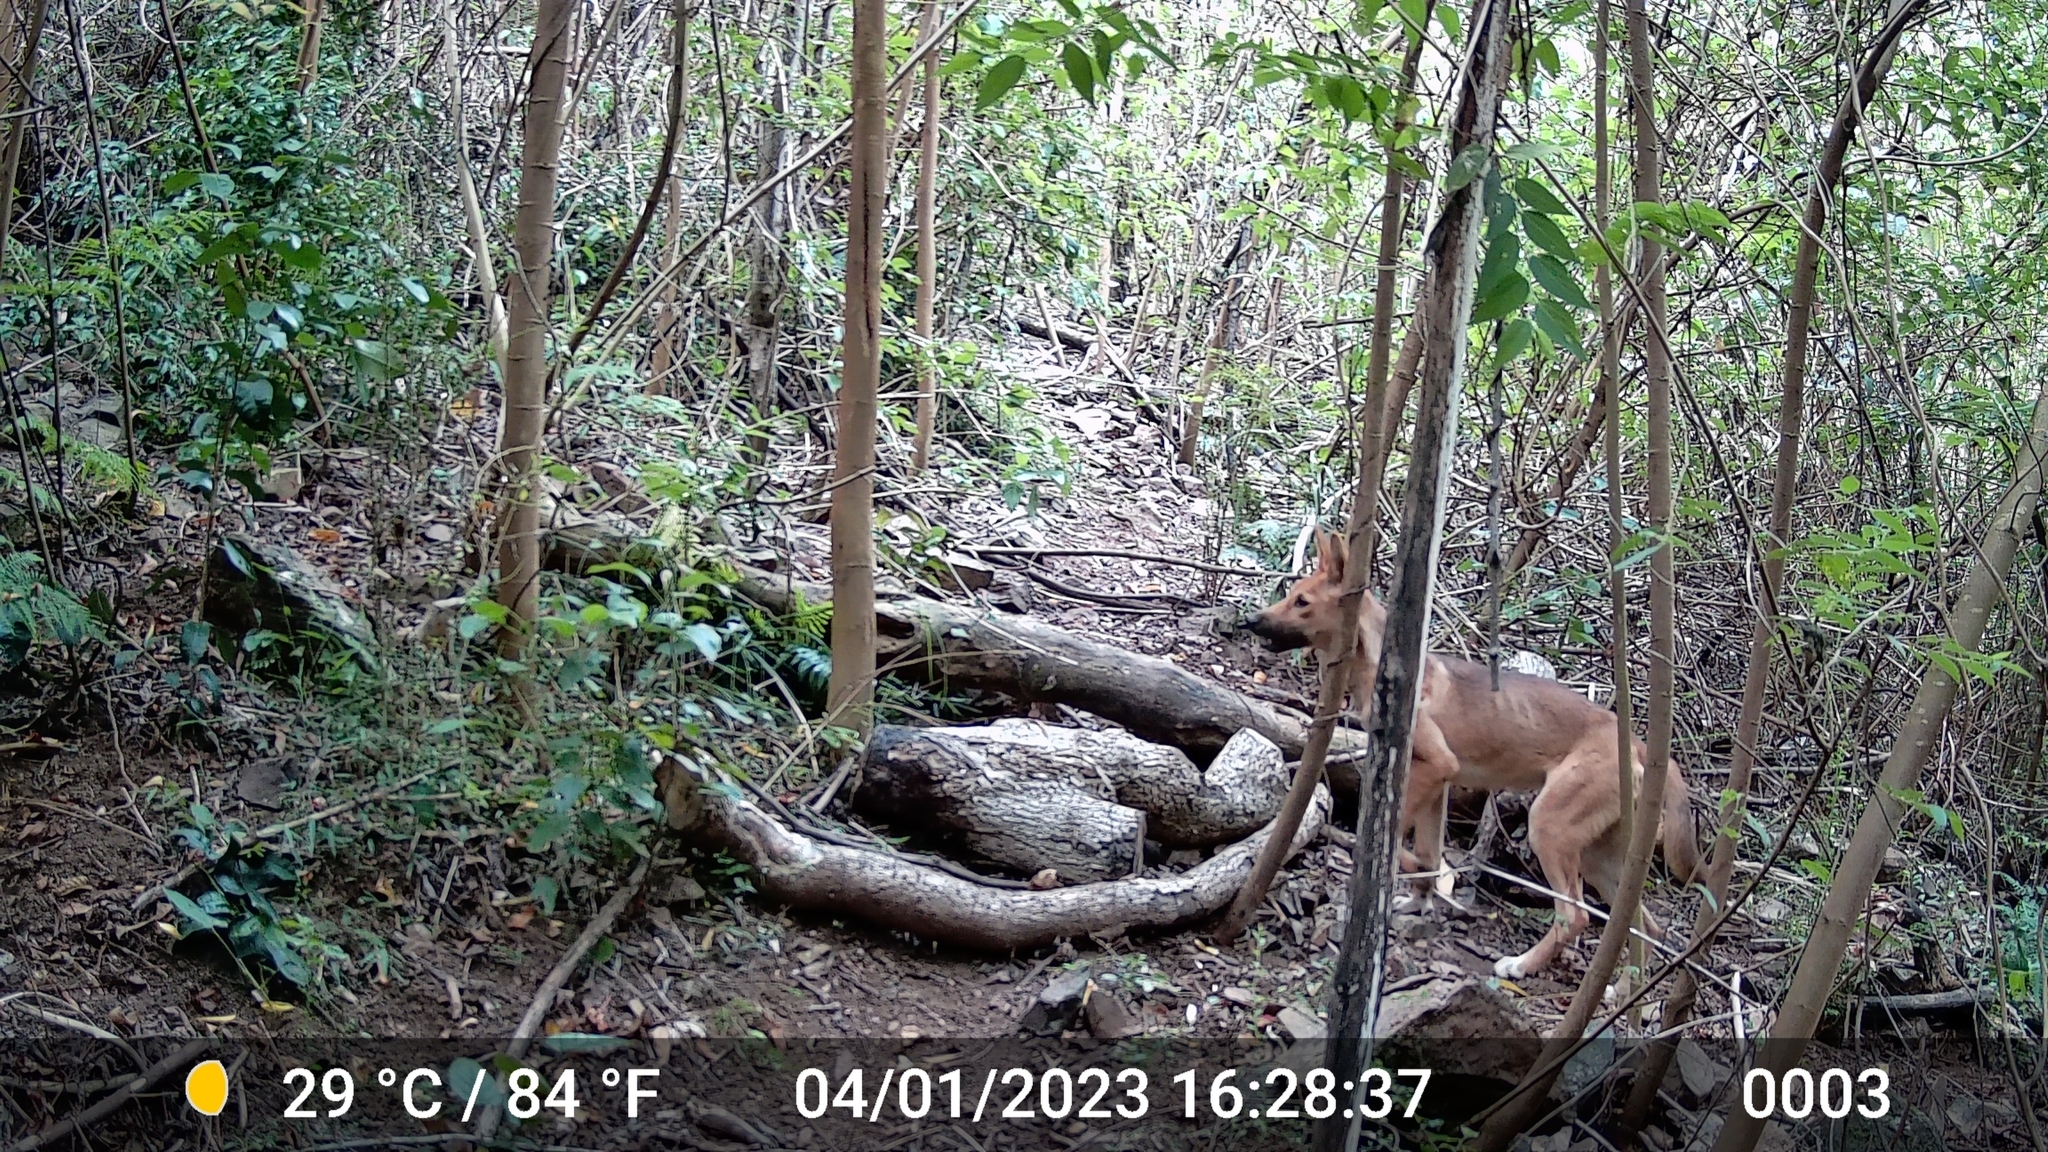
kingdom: Animalia
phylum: Chordata
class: Mammalia
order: Carnivora
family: Canidae
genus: Canis
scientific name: Canis lupus
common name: Gray wolf
